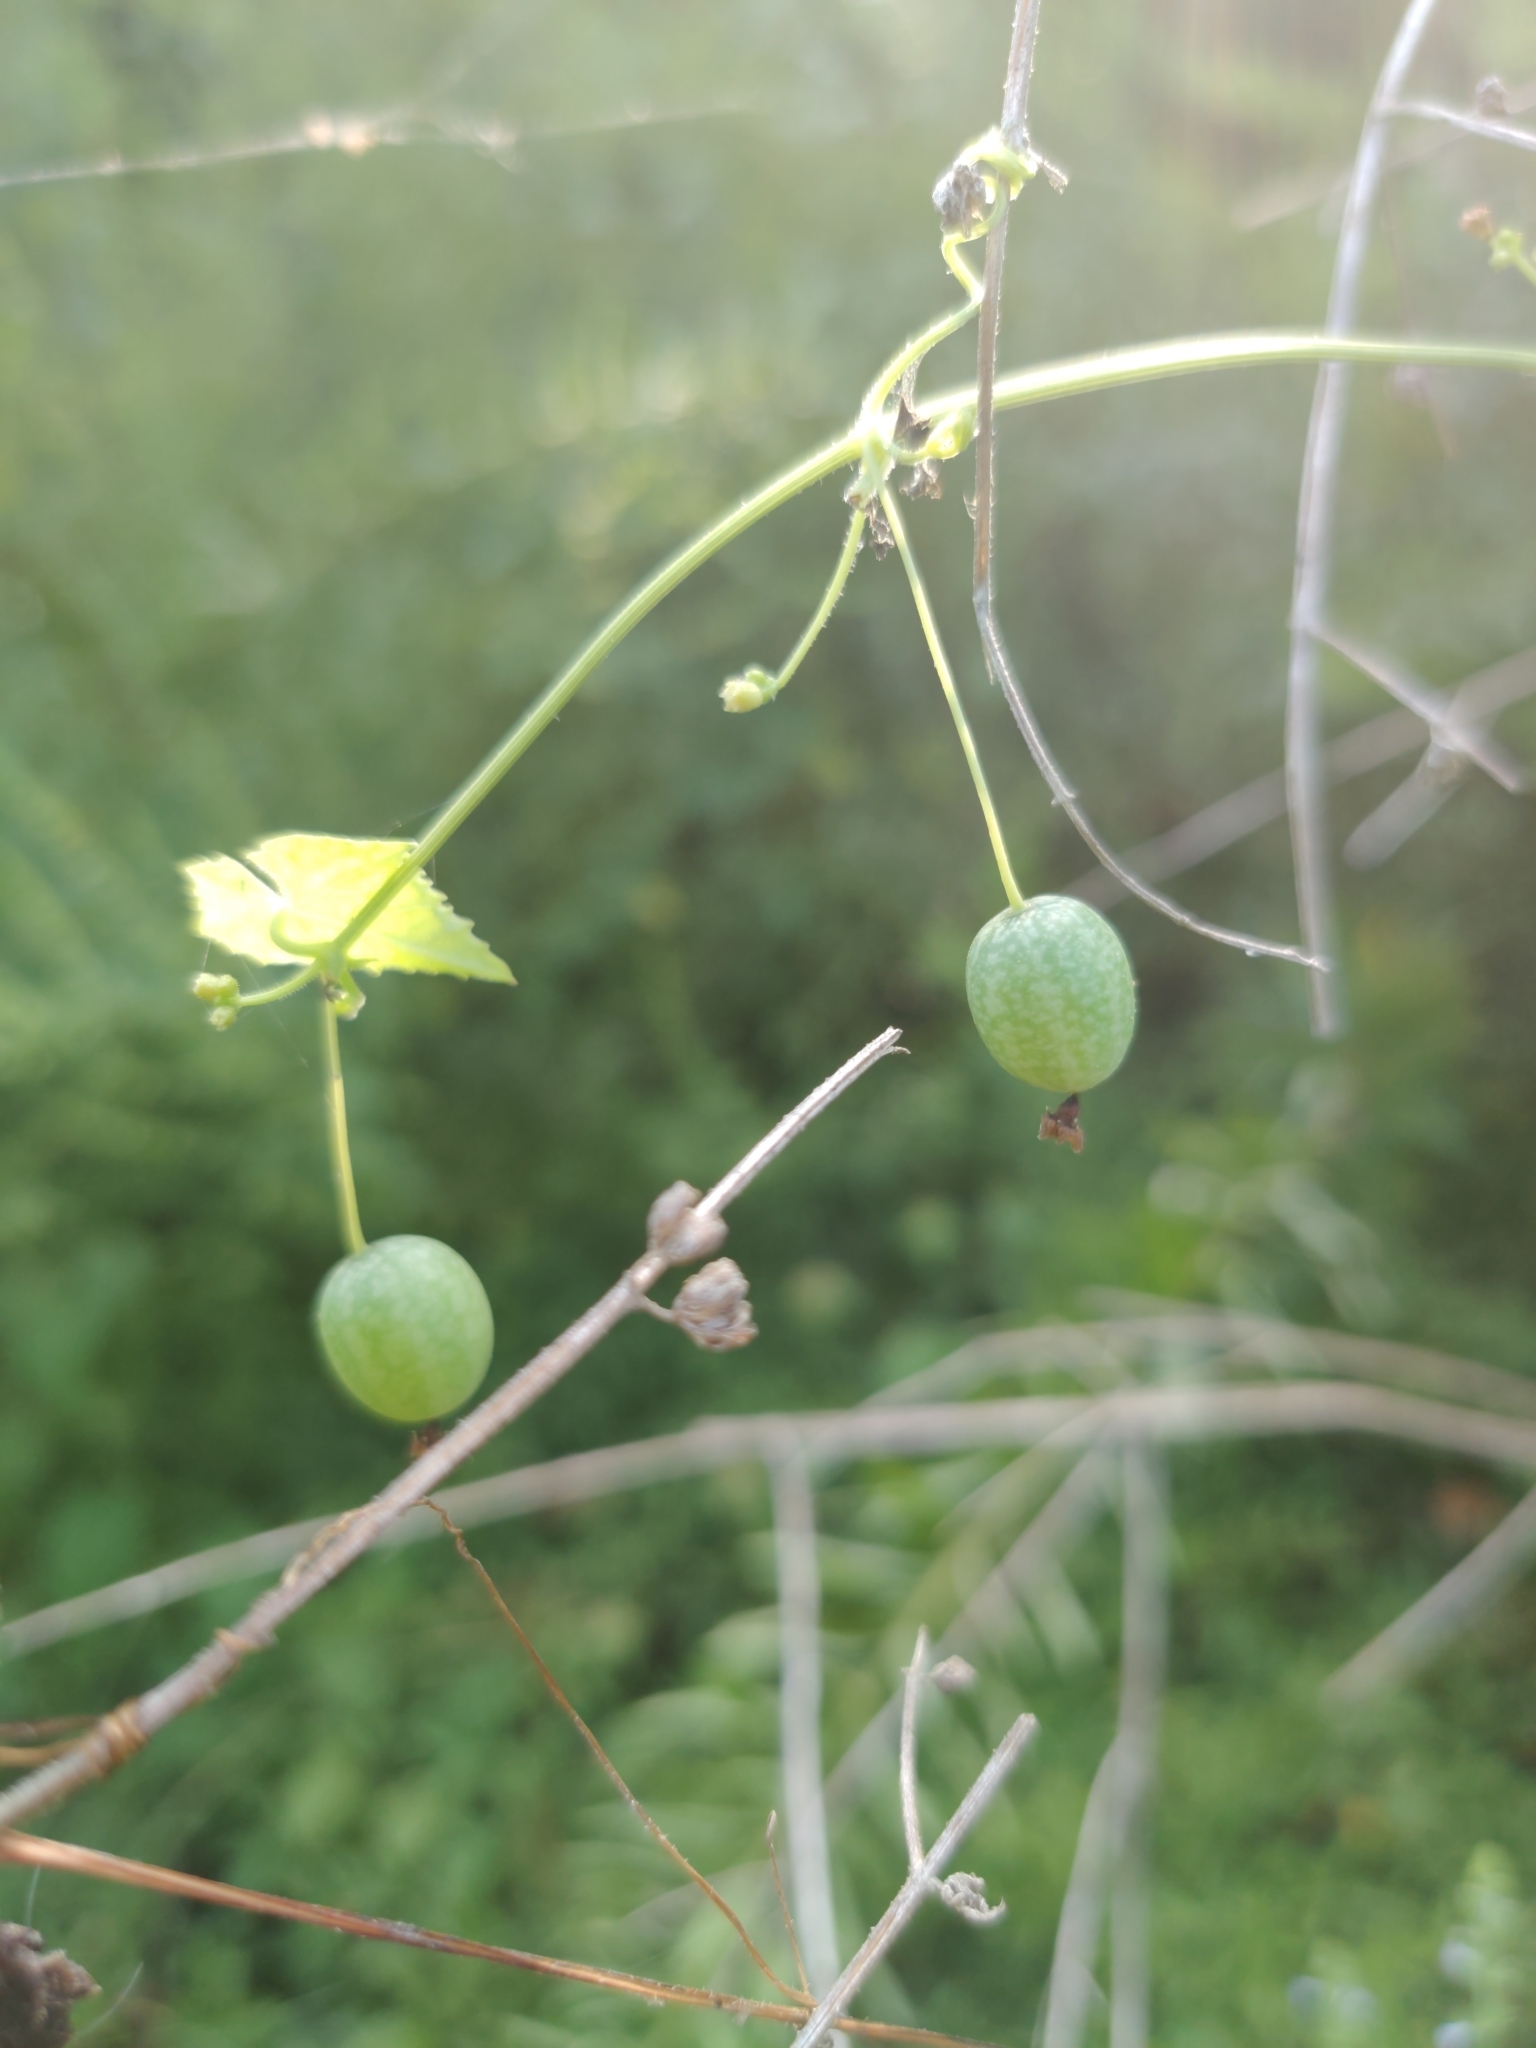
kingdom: Plantae
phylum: Tracheophyta
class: Magnoliopsida
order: Cucurbitales
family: Cucurbitaceae
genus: Melothria
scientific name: Melothria pendula
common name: Creeping-cucumber
